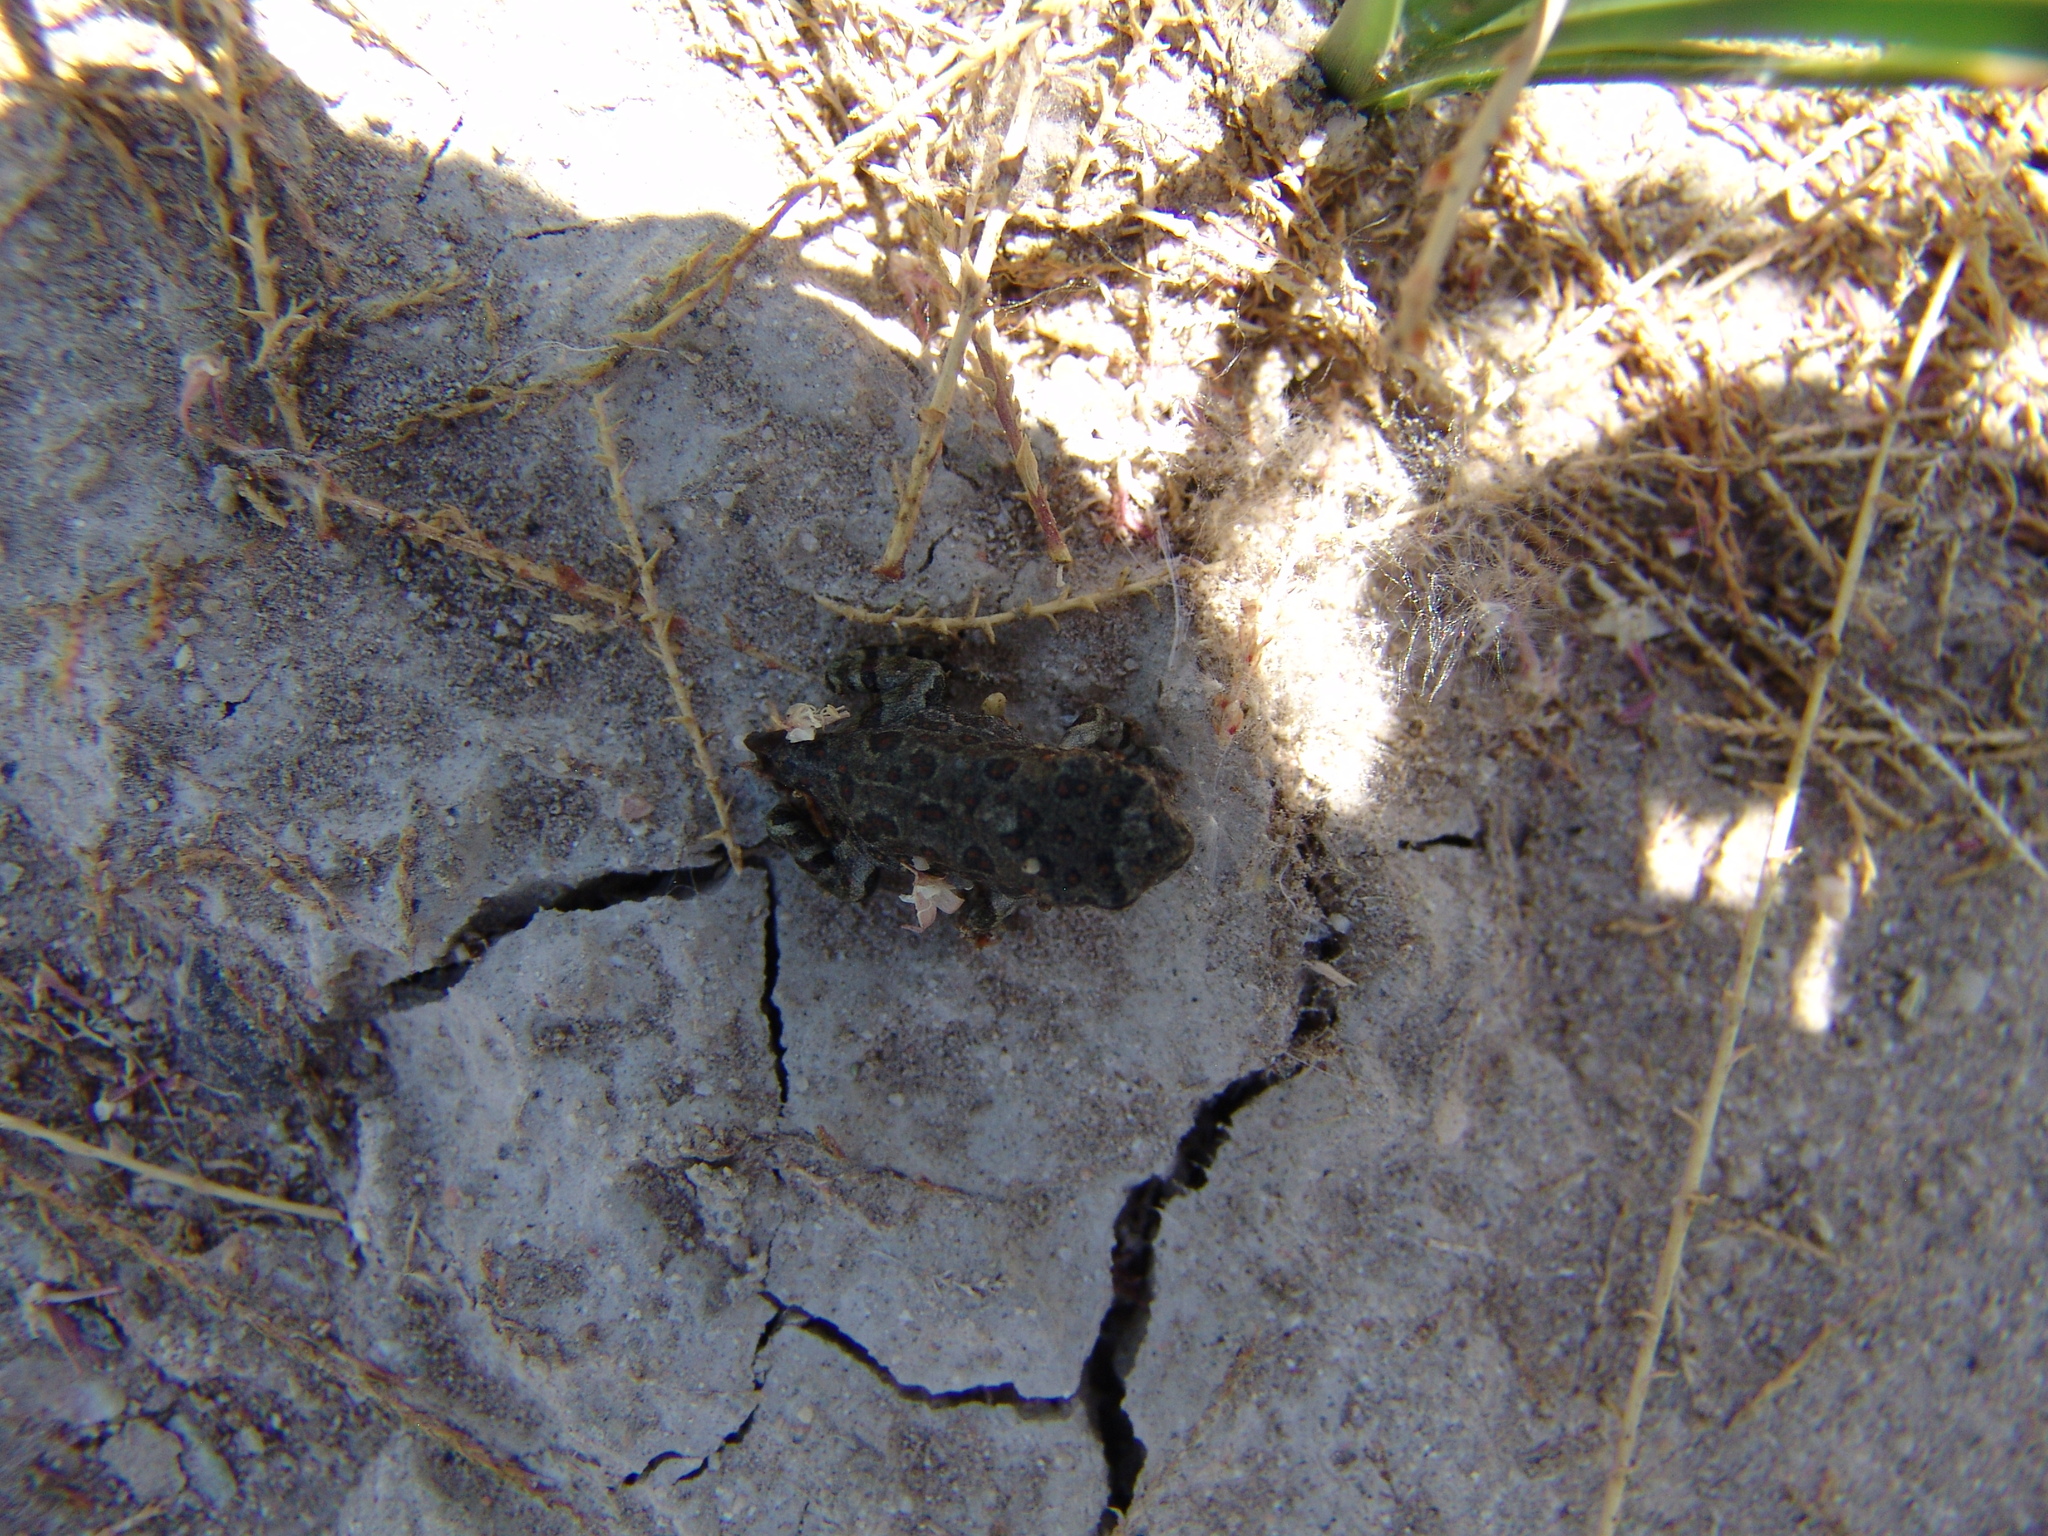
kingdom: Animalia
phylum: Chordata
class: Amphibia
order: Anura
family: Bufonidae
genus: Anaxyrus
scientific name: Anaxyrus boreas
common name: Western toad
